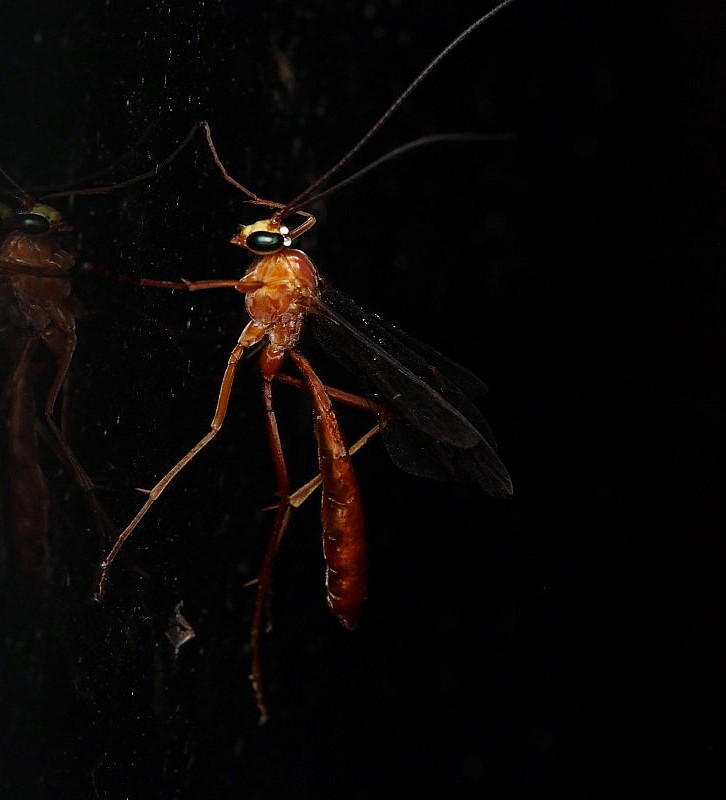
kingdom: Animalia
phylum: Arthropoda
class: Insecta
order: Hymenoptera
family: Ichneumonidae
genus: Netelia
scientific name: Netelia producta
